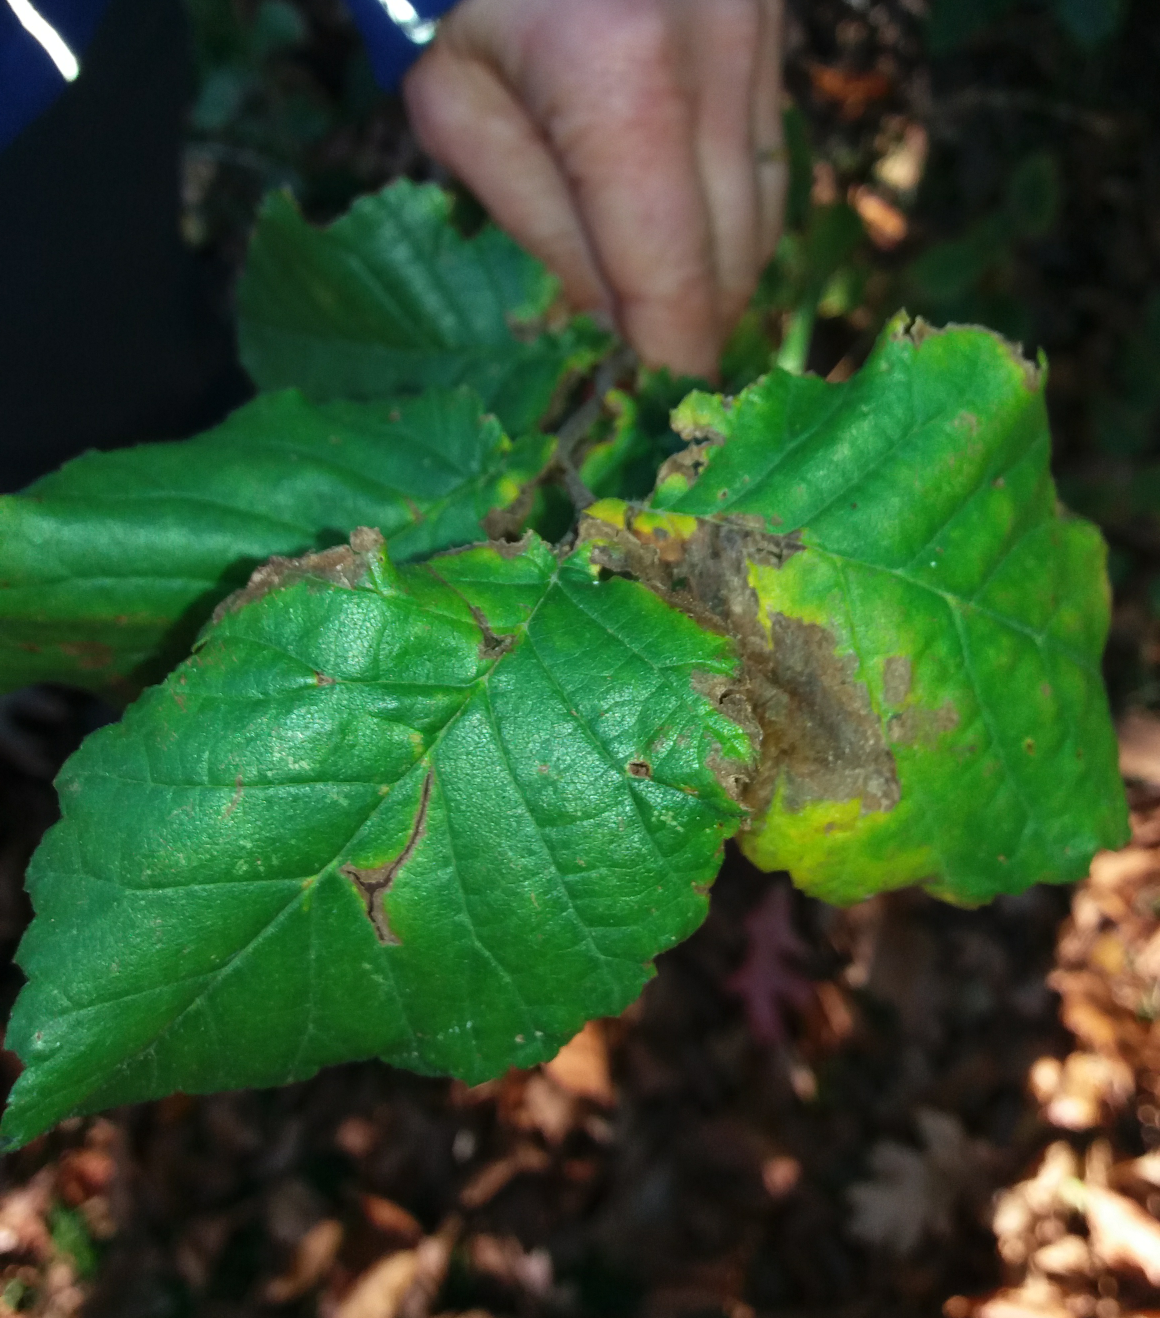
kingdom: Plantae
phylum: Tracheophyta
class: Magnoliopsida
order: Fagales
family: Betulaceae
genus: Alnus
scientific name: Alnus glutinosa
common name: Black alder
